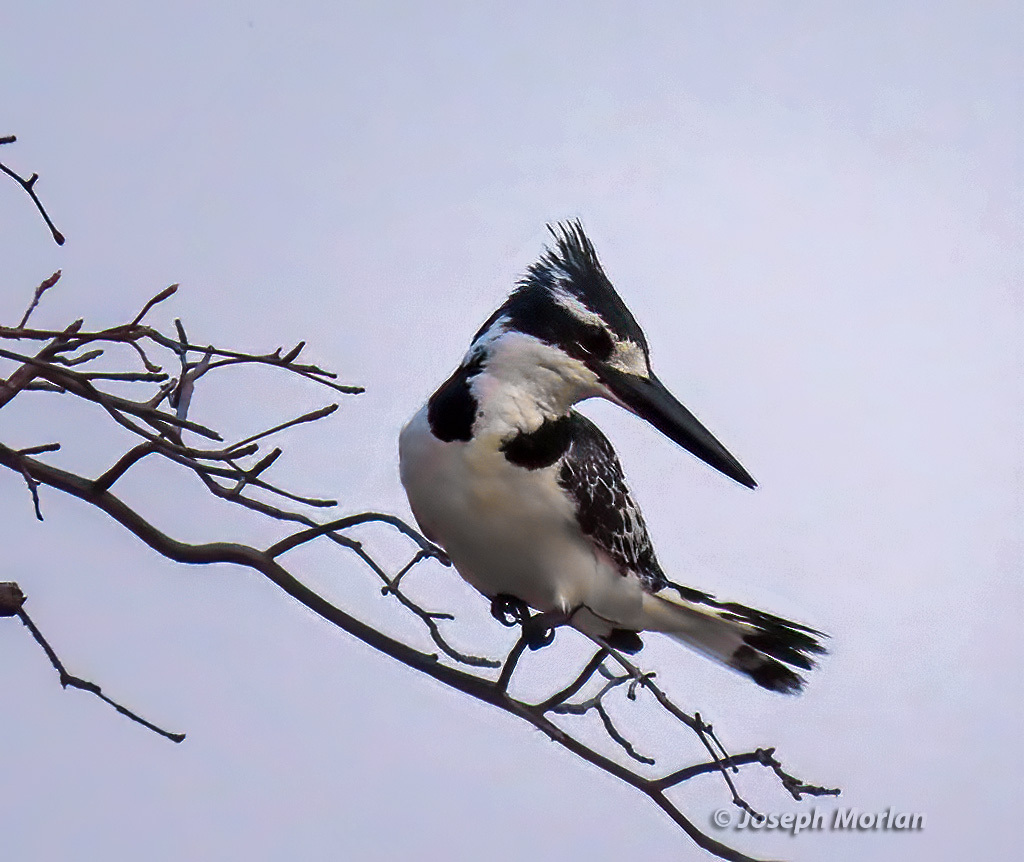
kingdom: Animalia
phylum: Chordata
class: Aves
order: Coraciiformes
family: Alcedinidae
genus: Ceryle
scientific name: Ceryle rudis
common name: Pied kingfisher
